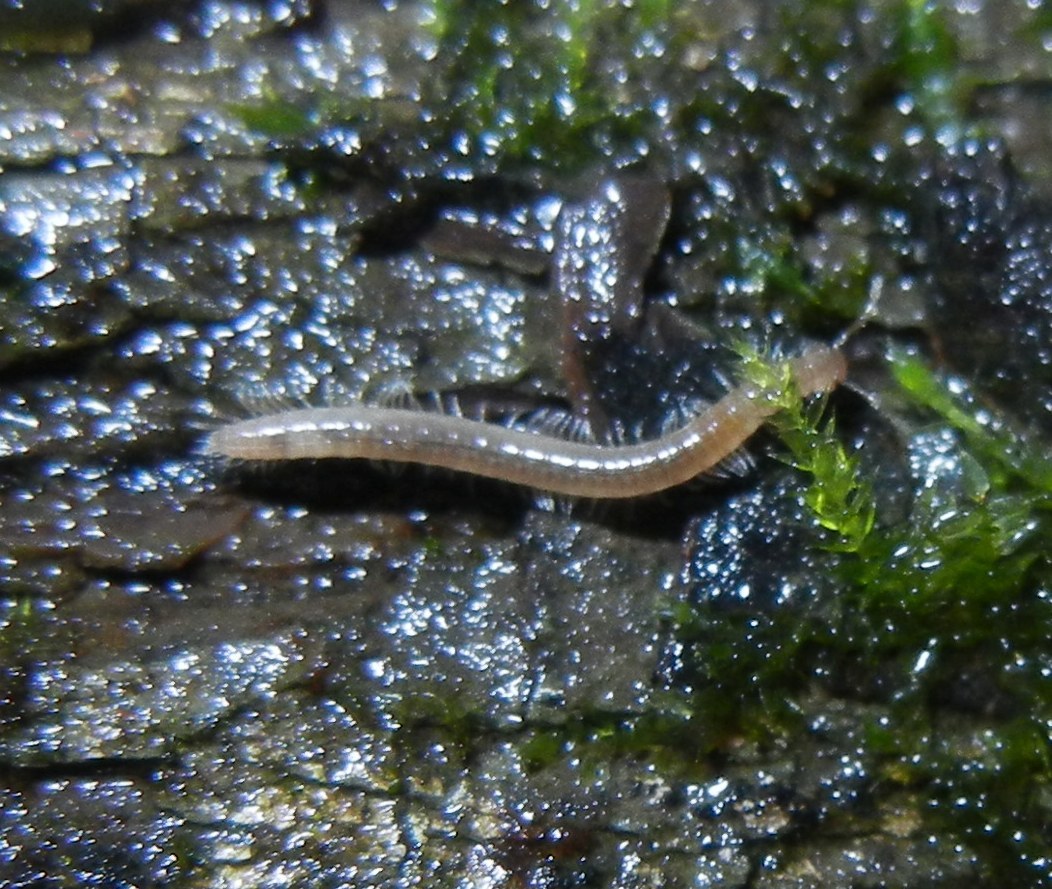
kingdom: Animalia
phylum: Arthropoda
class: Diplopoda
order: Chordeumatida
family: Chordeumatidae
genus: Melogona
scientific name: Melogona
